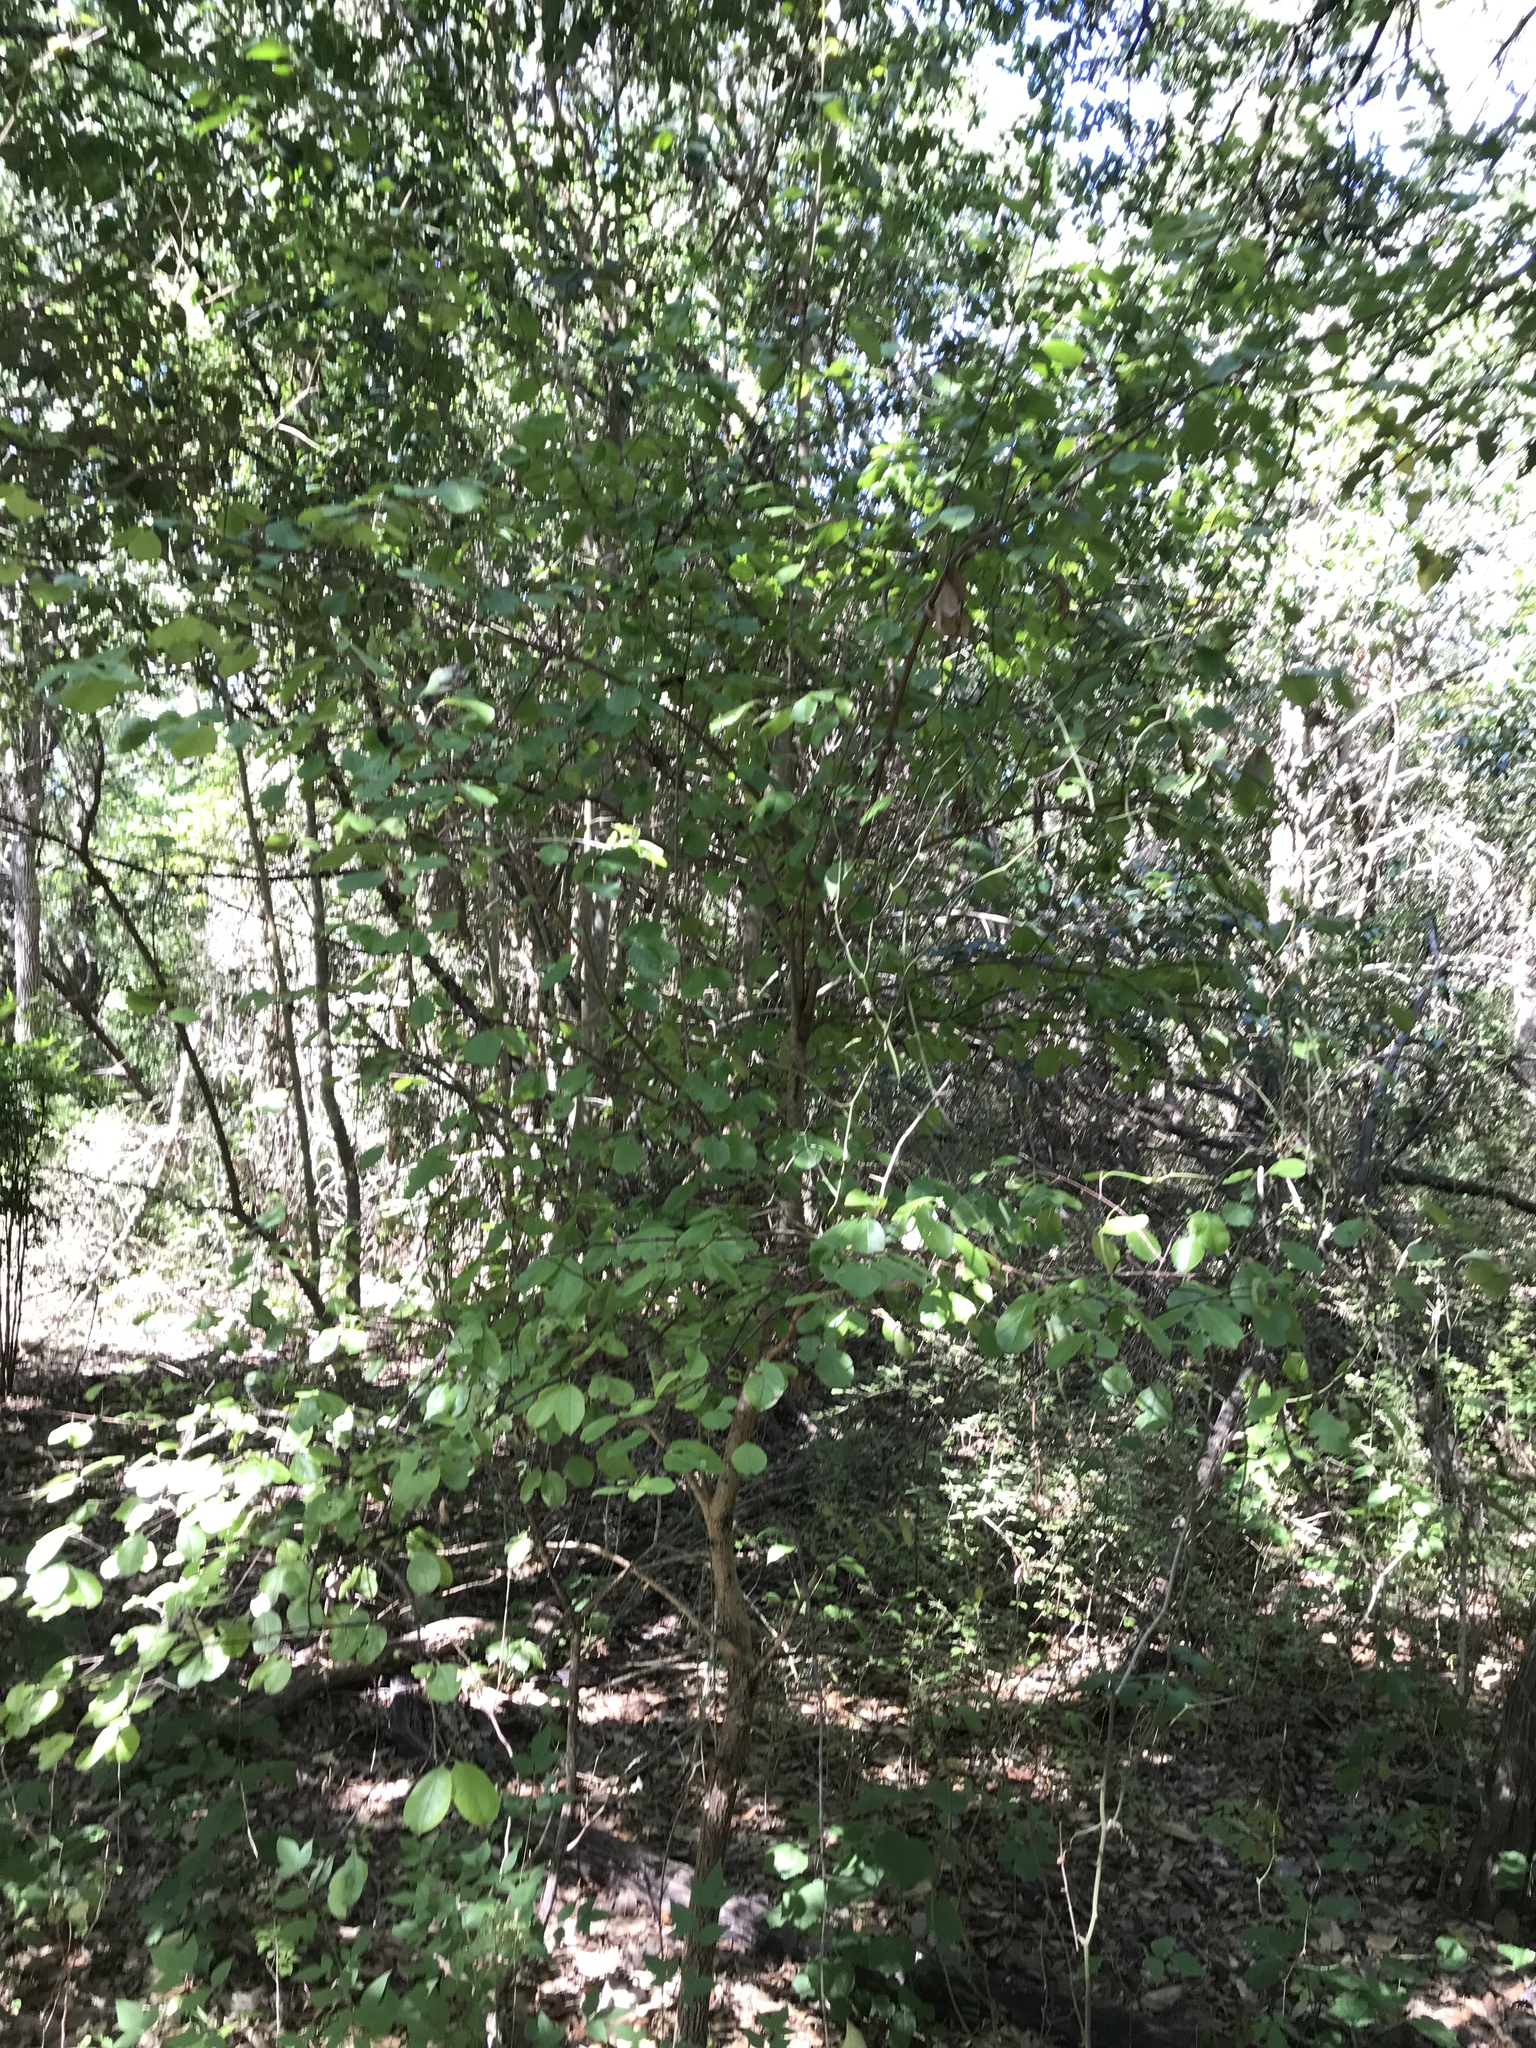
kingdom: Plantae
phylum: Tracheophyta
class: Magnoliopsida
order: Dipsacales
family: Viburnaceae
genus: Viburnum
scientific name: Viburnum rufidulum
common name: Blue haw
